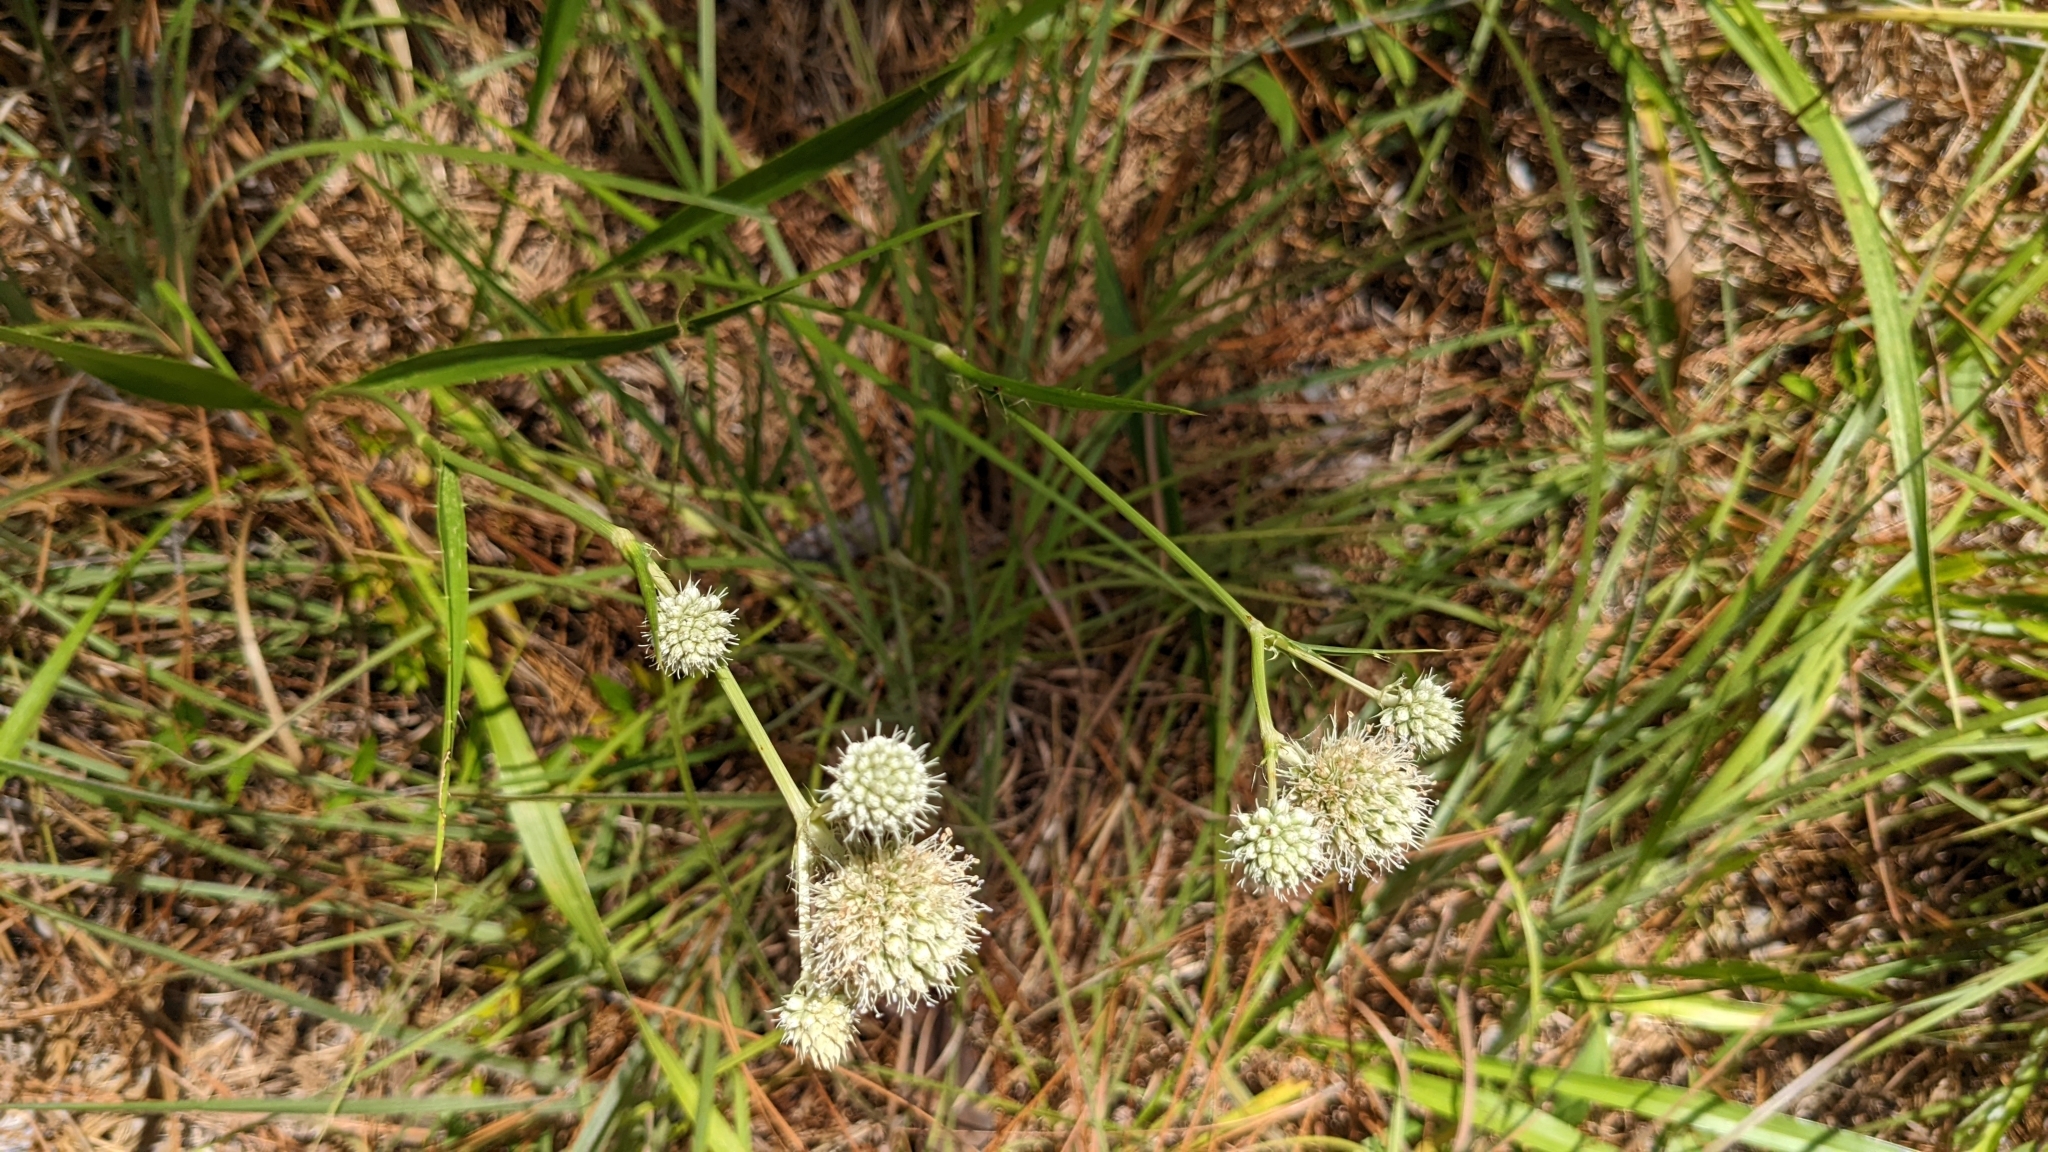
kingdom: Plantae
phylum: Tracheophyta
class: Magnoliopsida
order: Apiales
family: Apiaceae
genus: Eryngium
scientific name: Eryngium yuccifolium
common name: Button eryngo
